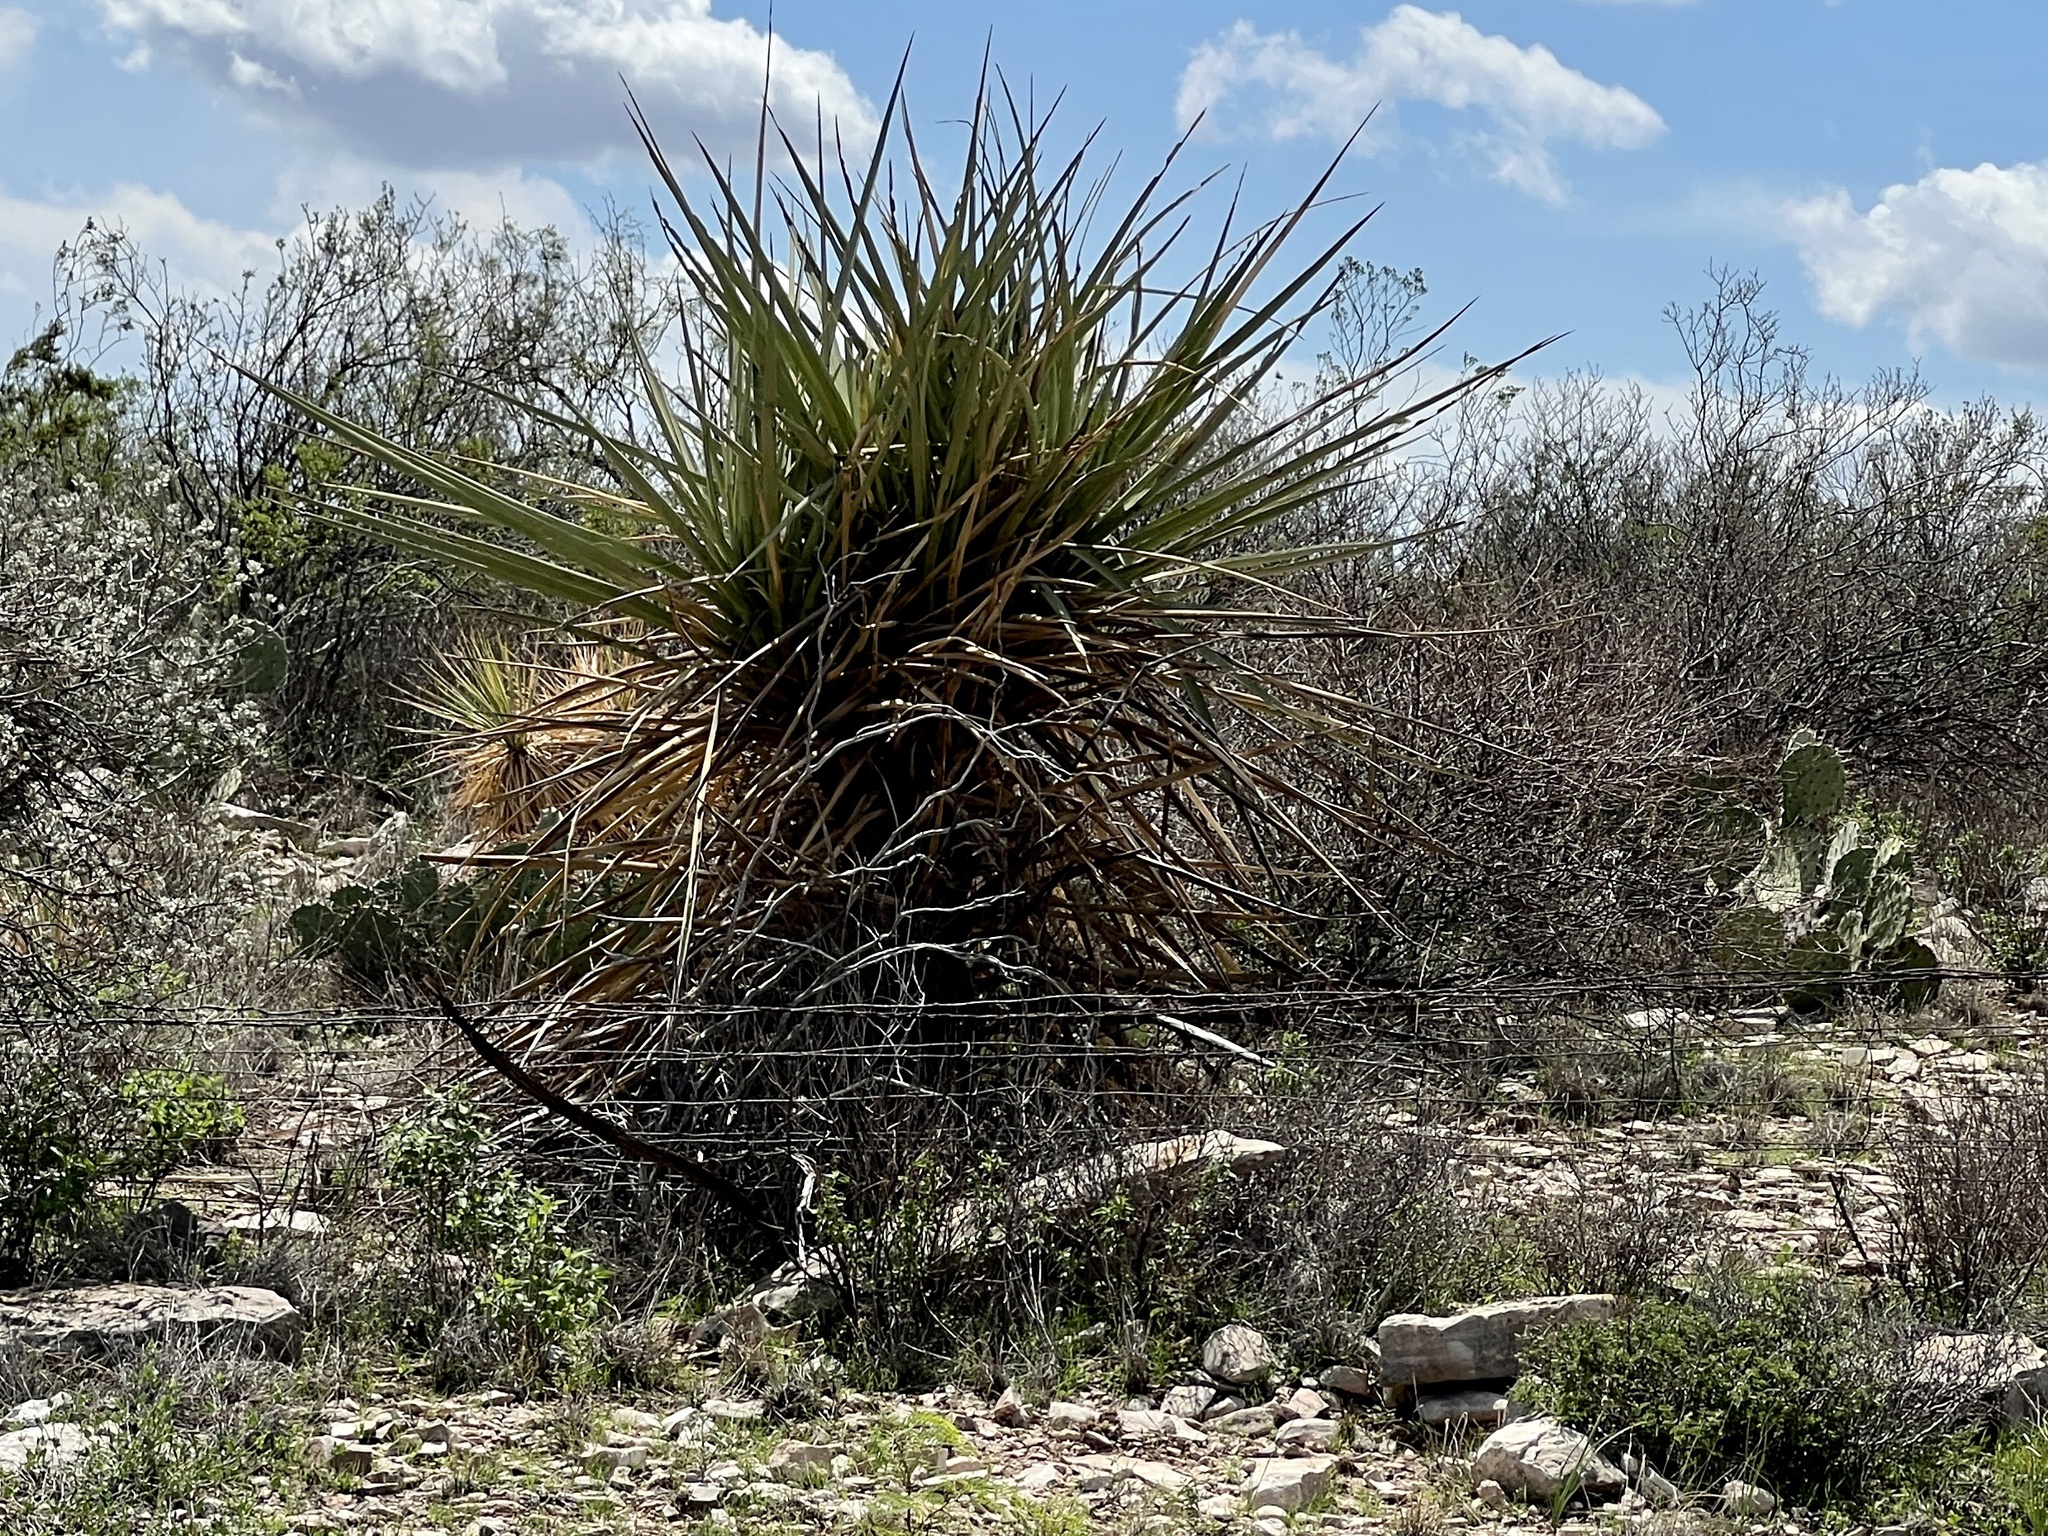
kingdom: Plantae
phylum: Tracheophyta
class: Liliopsida
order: Asparagales
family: Asparagaceae
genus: Yucca
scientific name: Yucca treculiana
